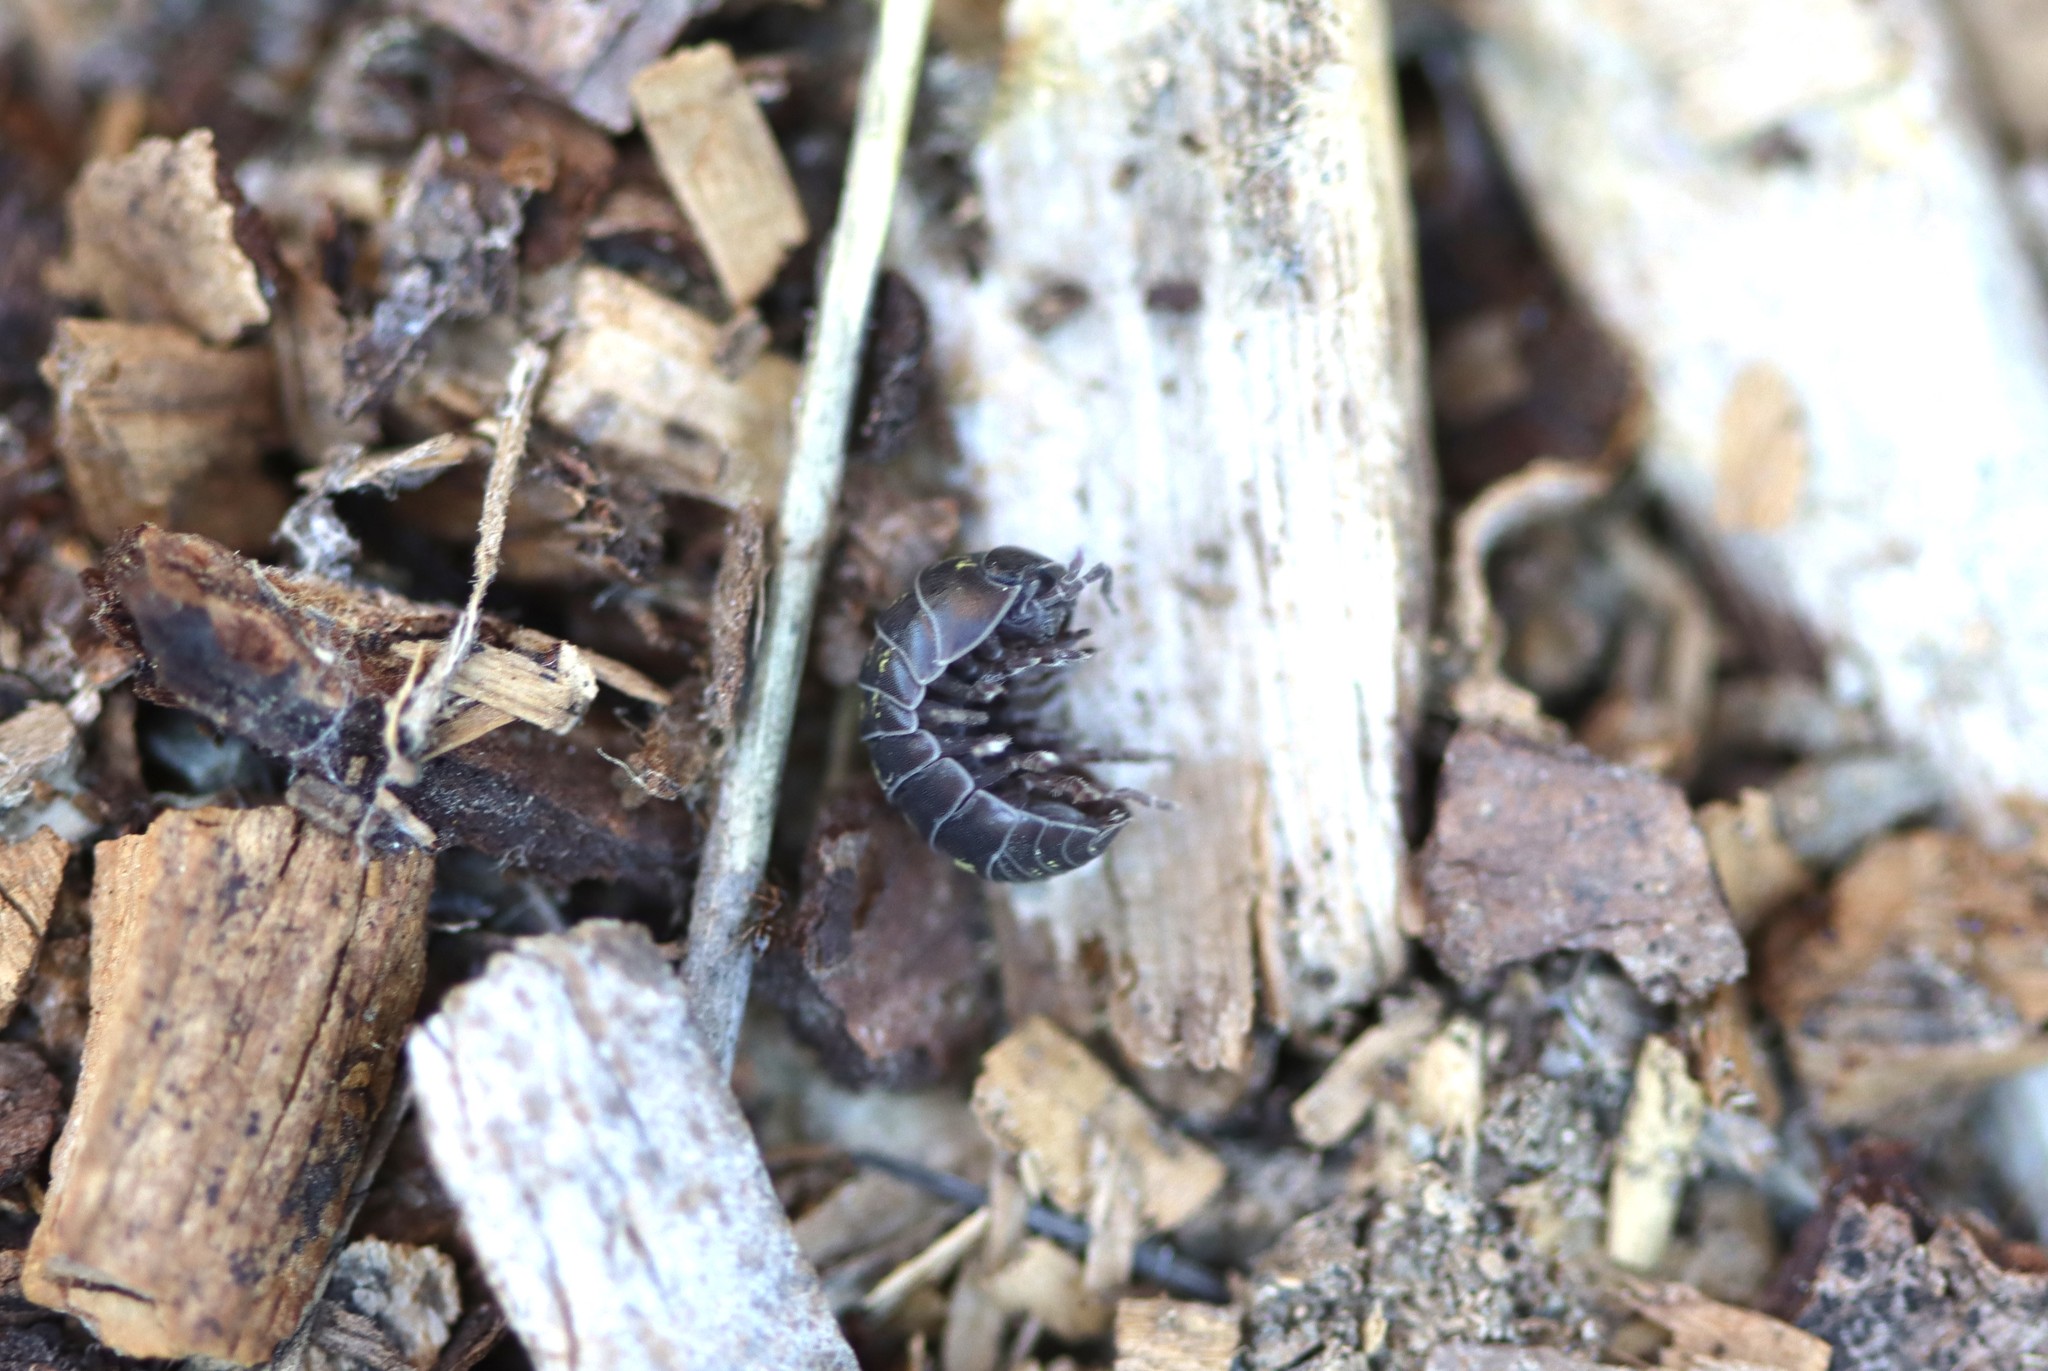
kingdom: Animalia
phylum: Arthropoda
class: Malacostraca
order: Isopoda
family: Armadillidiidae
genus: Armadillidium
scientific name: Armadillidium vulgare
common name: Common pill woodlouse
